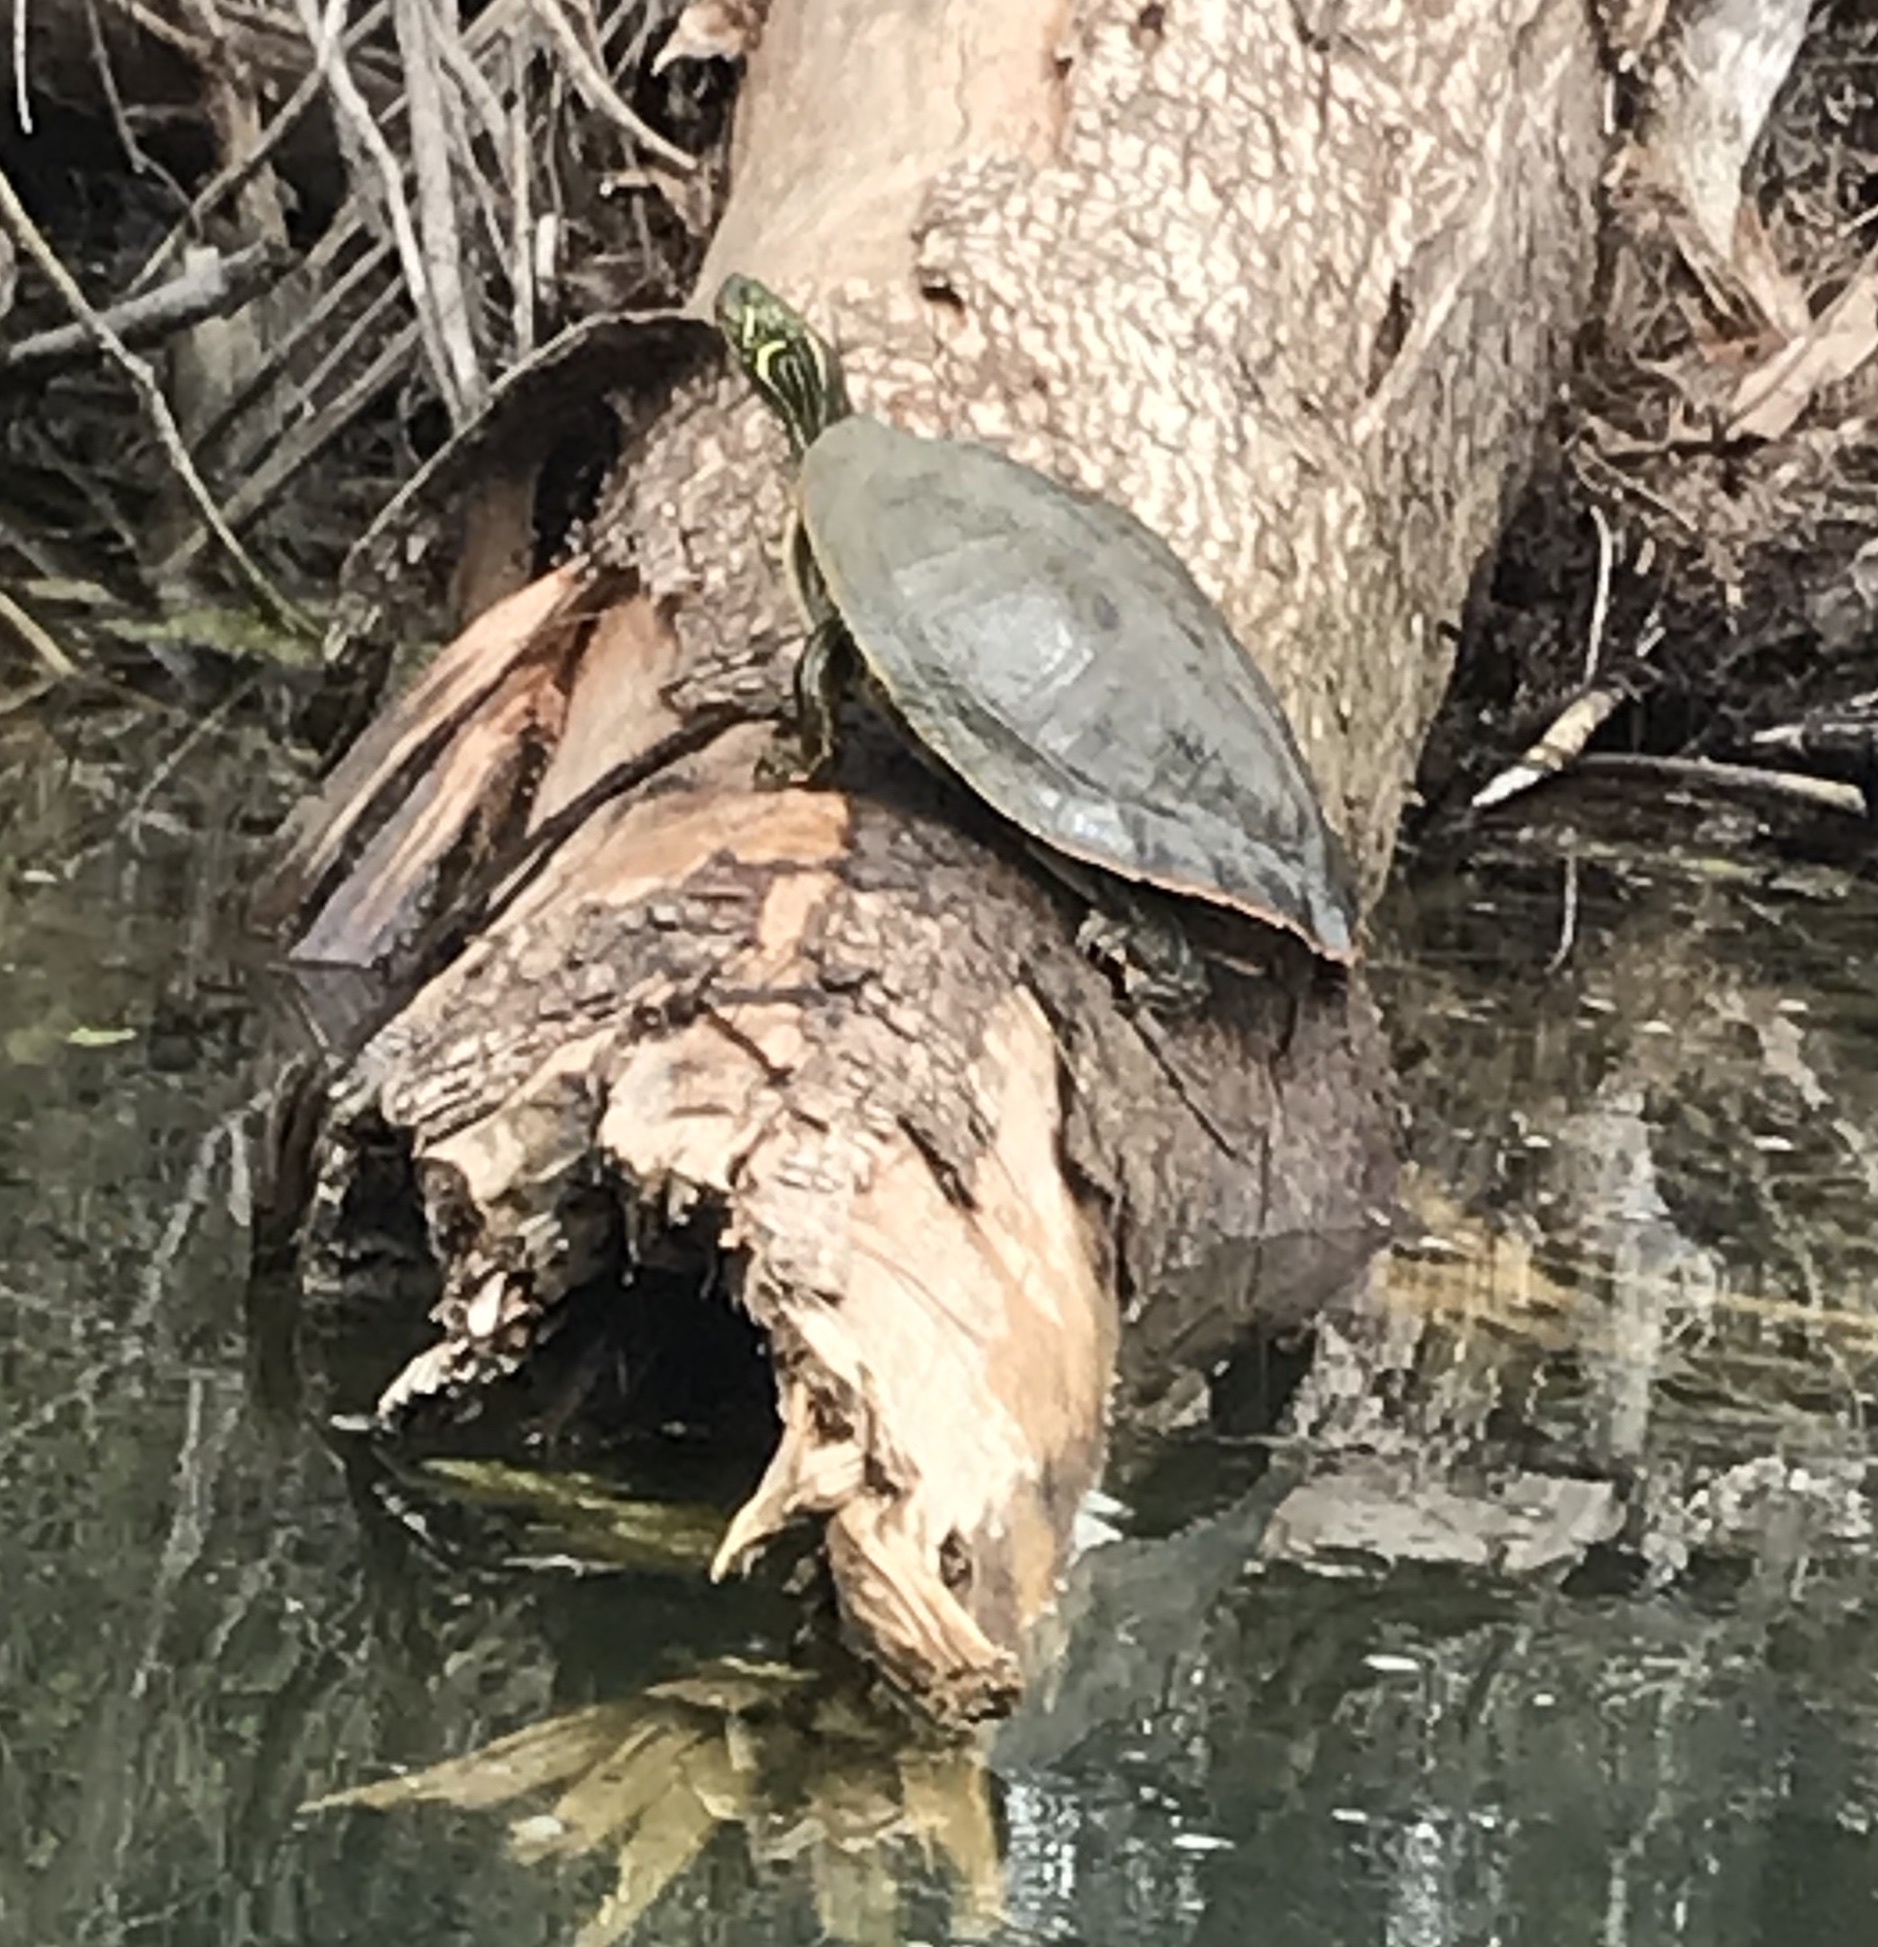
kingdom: Animalia
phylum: Chordata
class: Testudines
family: Emydidae
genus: Pseudemys
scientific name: Pseudemys texana
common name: Texas river cooter
